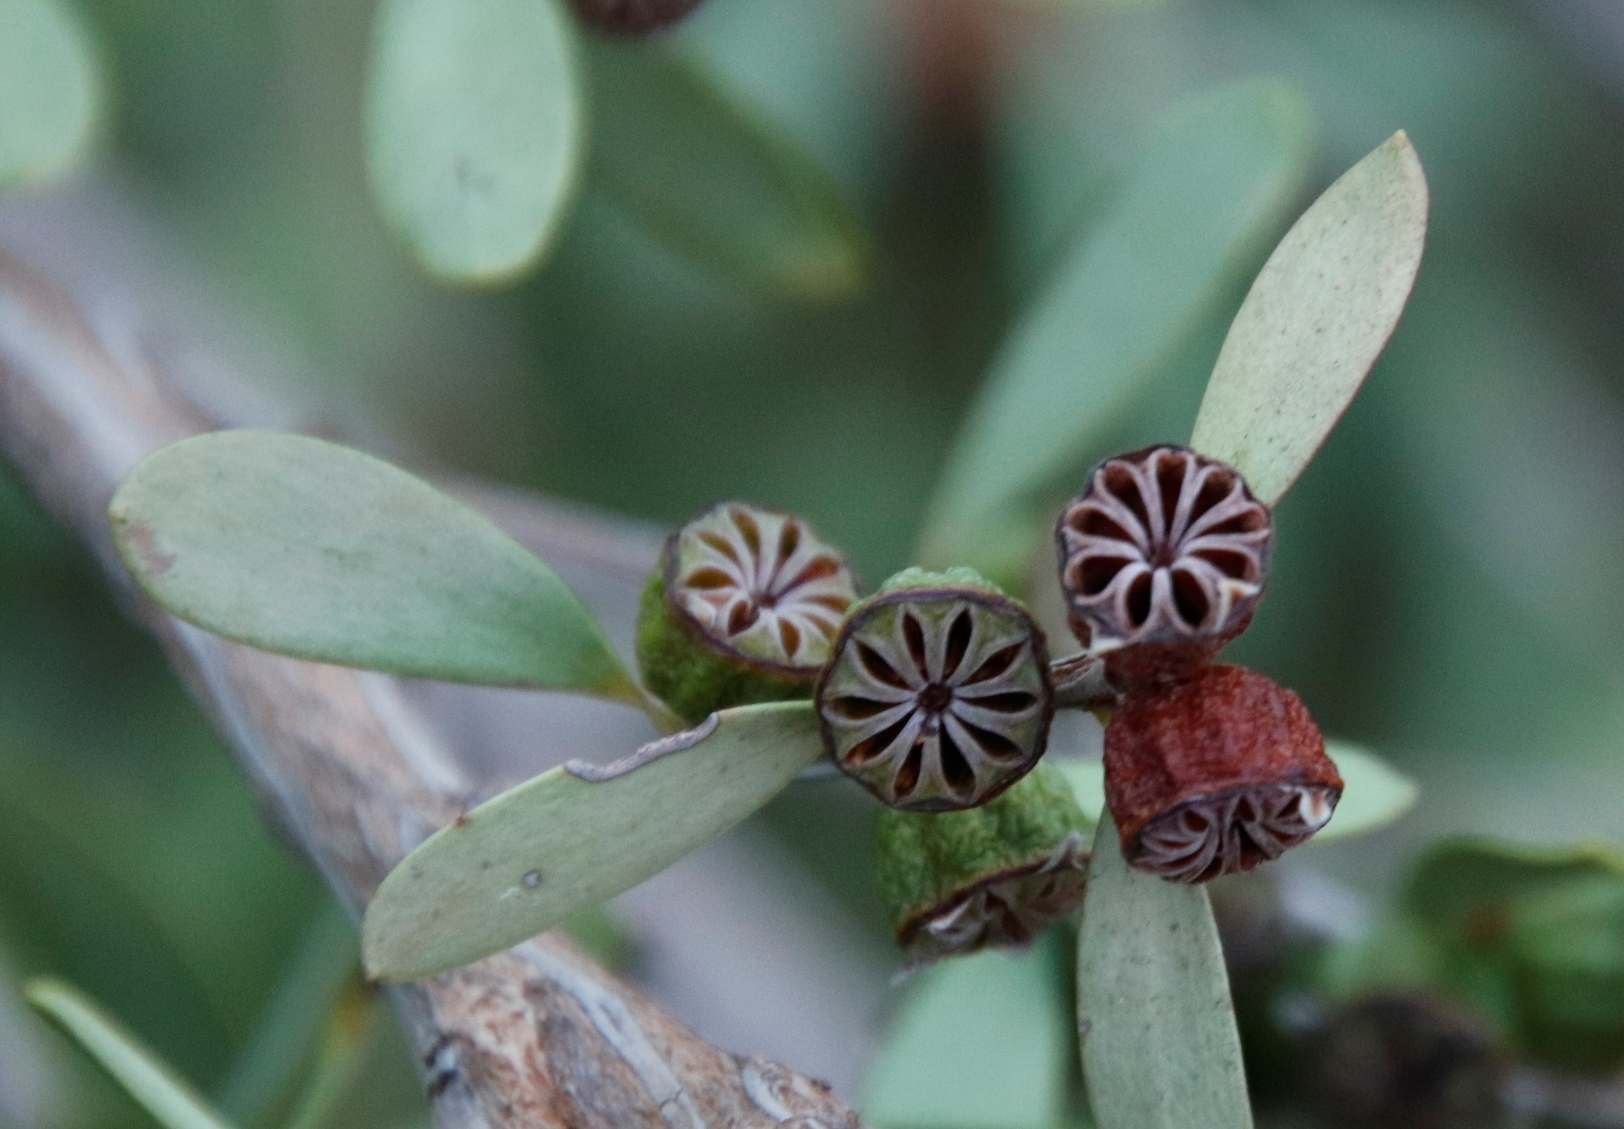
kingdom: Plantae
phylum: Tracheophyta
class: Magnoliopsida
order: Myrtales
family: Myrtaceae
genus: Leptospermum
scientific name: Leptospermum laevigatum
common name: Australian teatree
